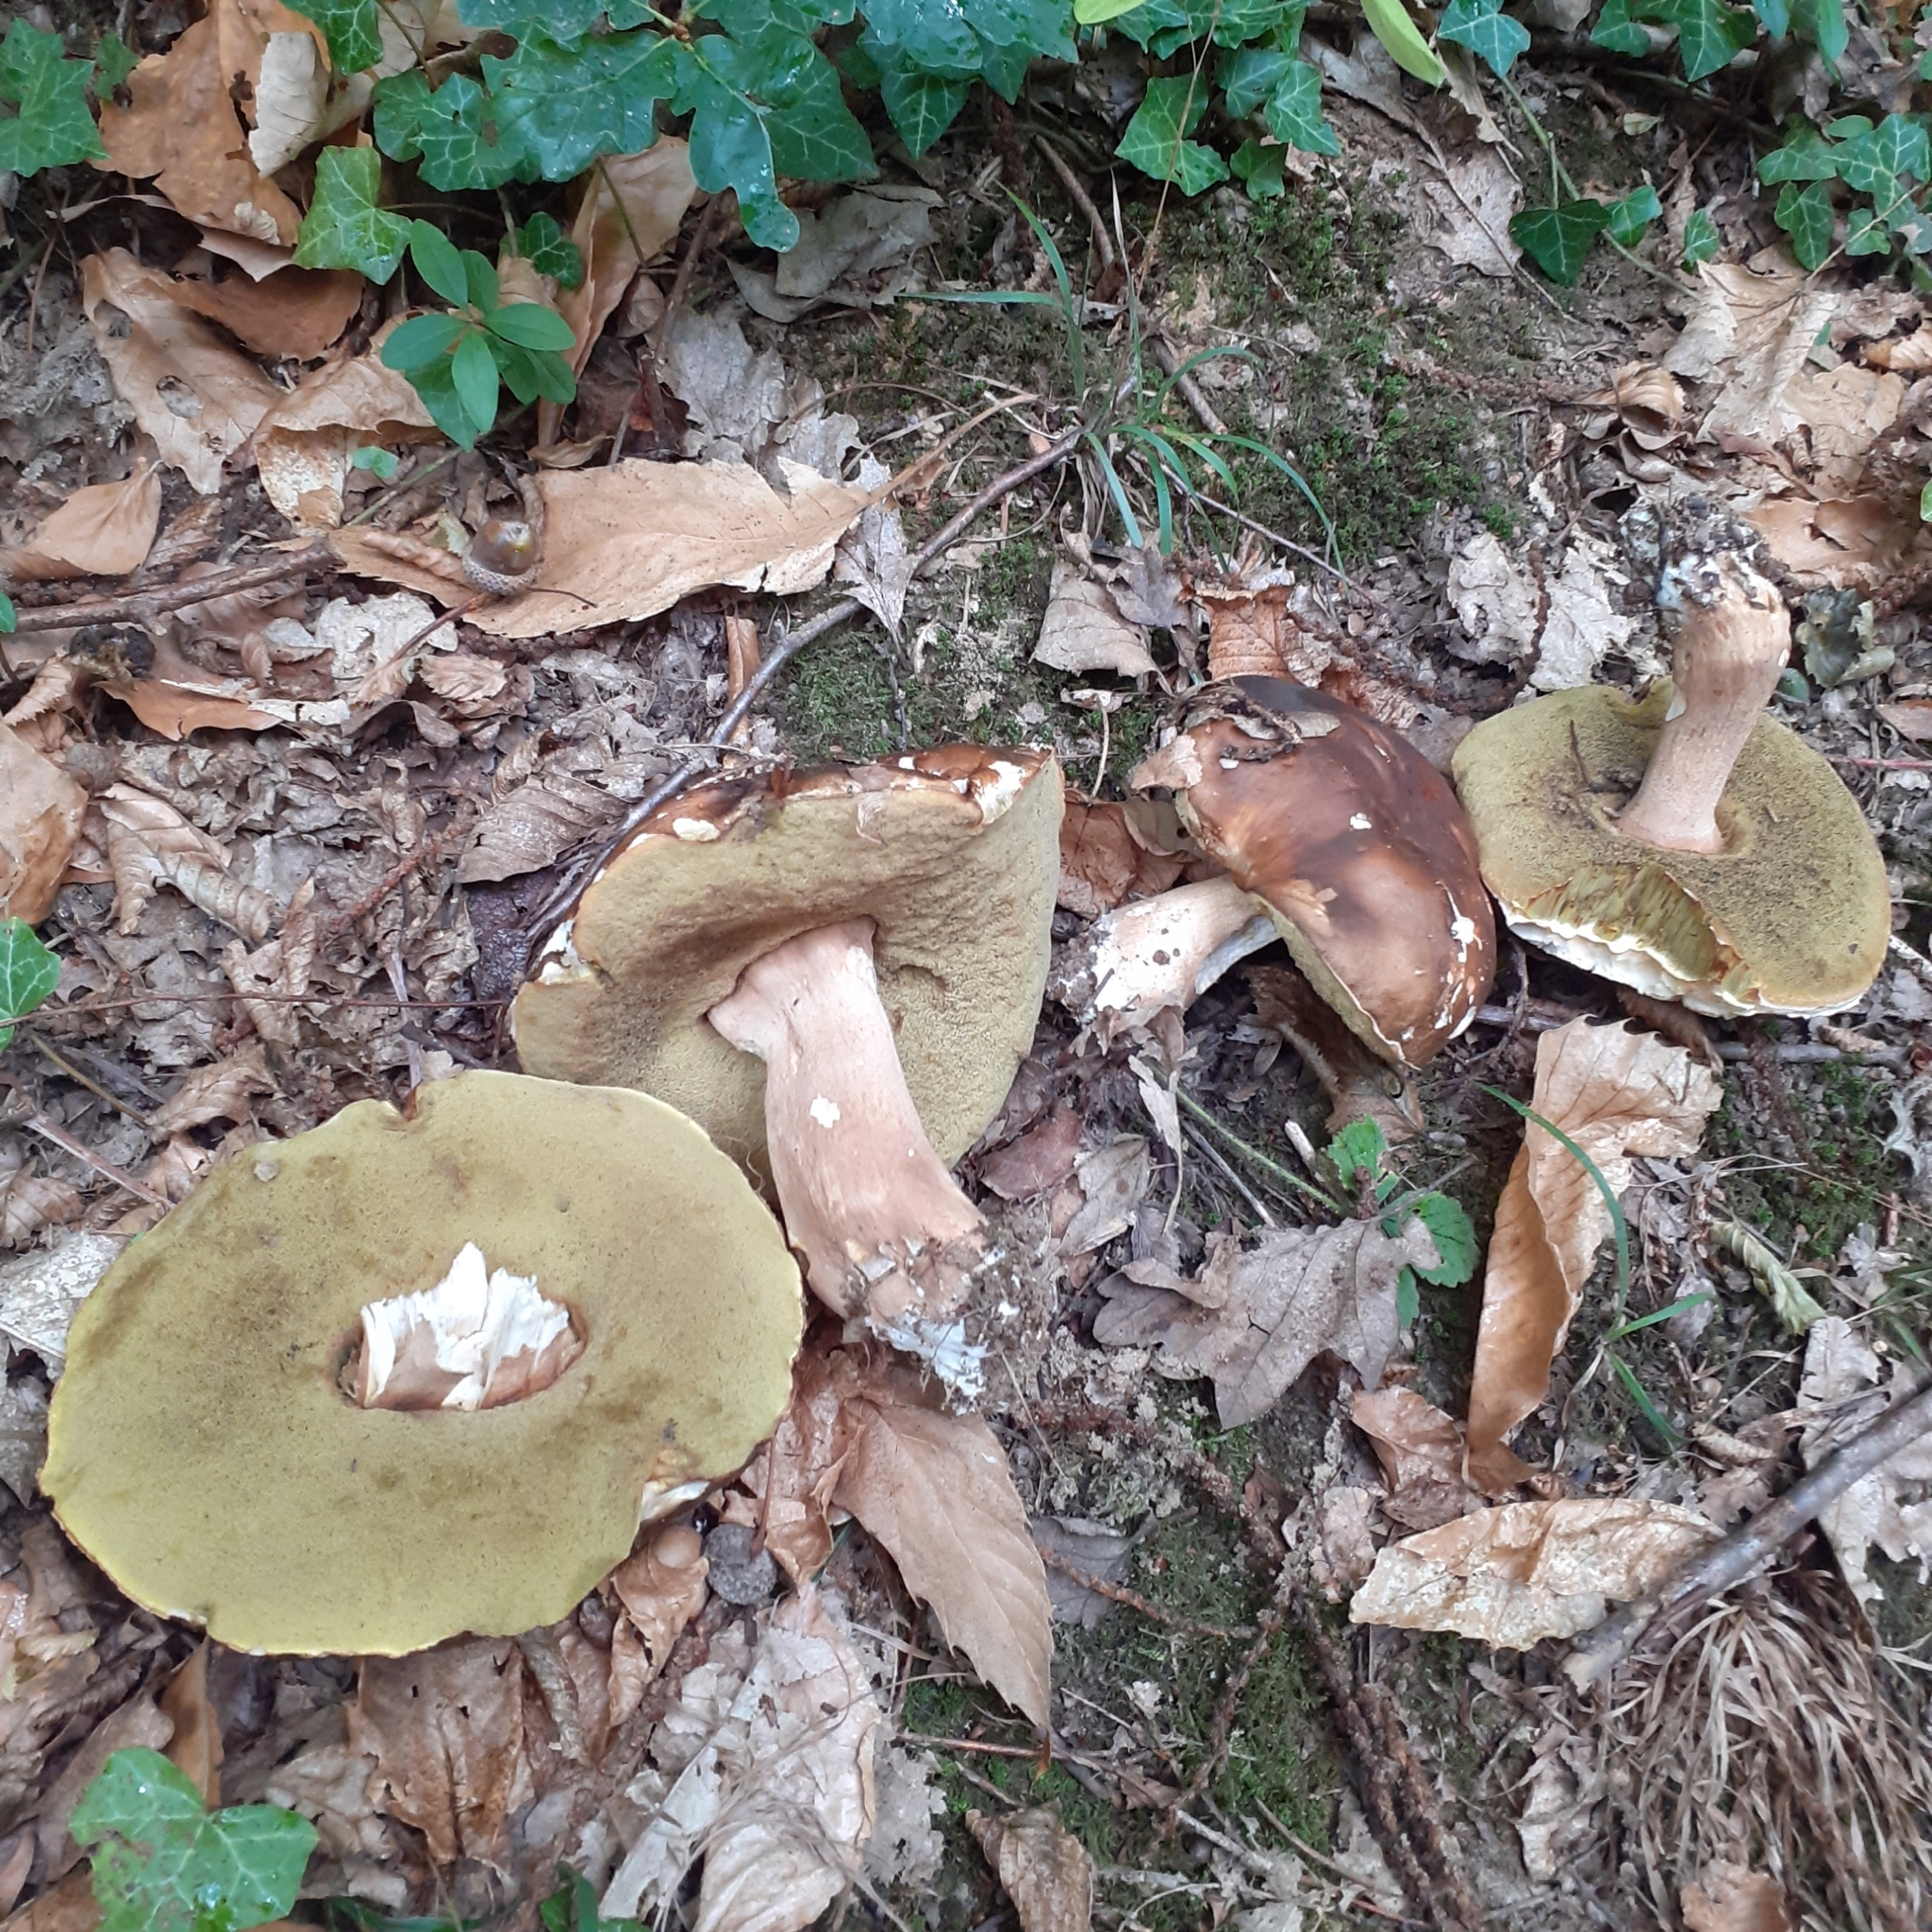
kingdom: Fungi
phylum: Basidiomycota
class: Agaricomycetes
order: Boletales
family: Boletaceae
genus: Boletus
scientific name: Boletus reticulatus
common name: Summer bolete
